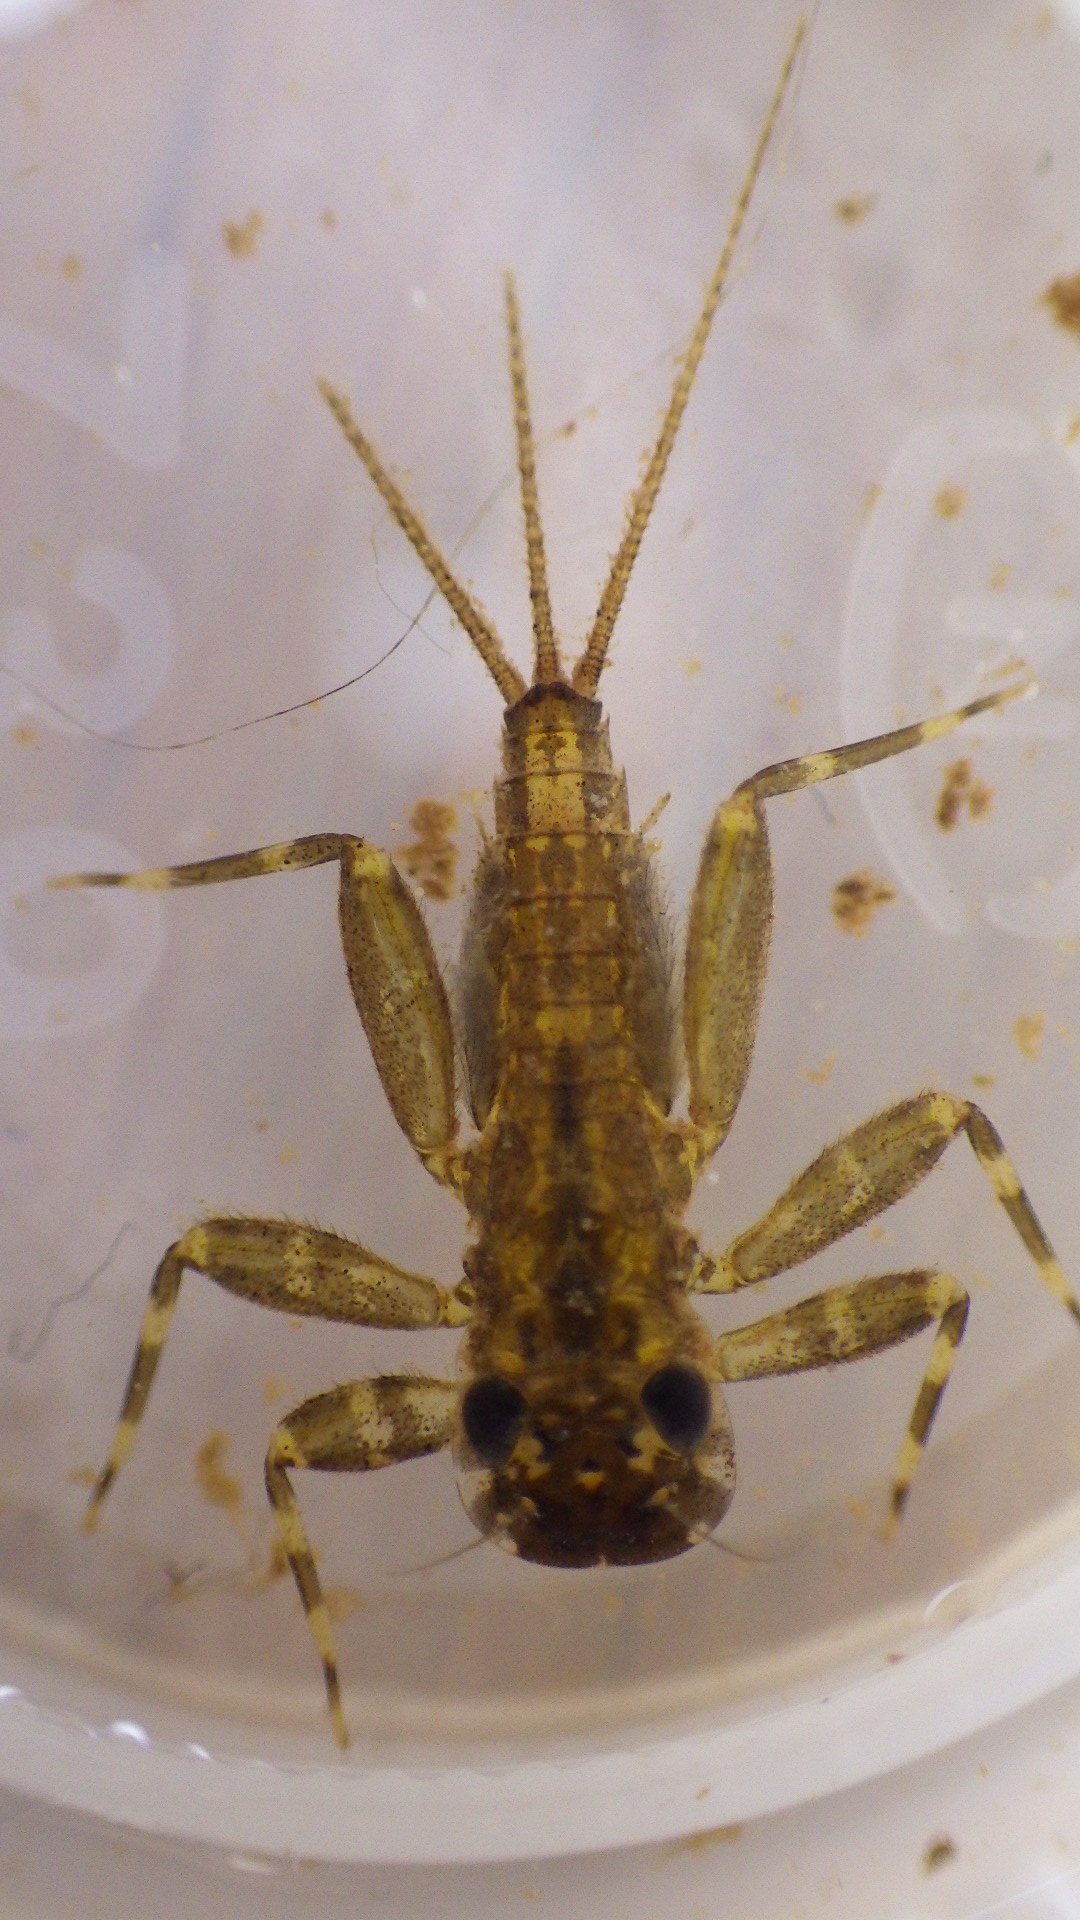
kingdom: Animalia
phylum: Arthropoda
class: Insecta
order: Ephemeroptera
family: Heptageniidae
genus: Stenonema
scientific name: Stenonema femoratum
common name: Dark cahill
